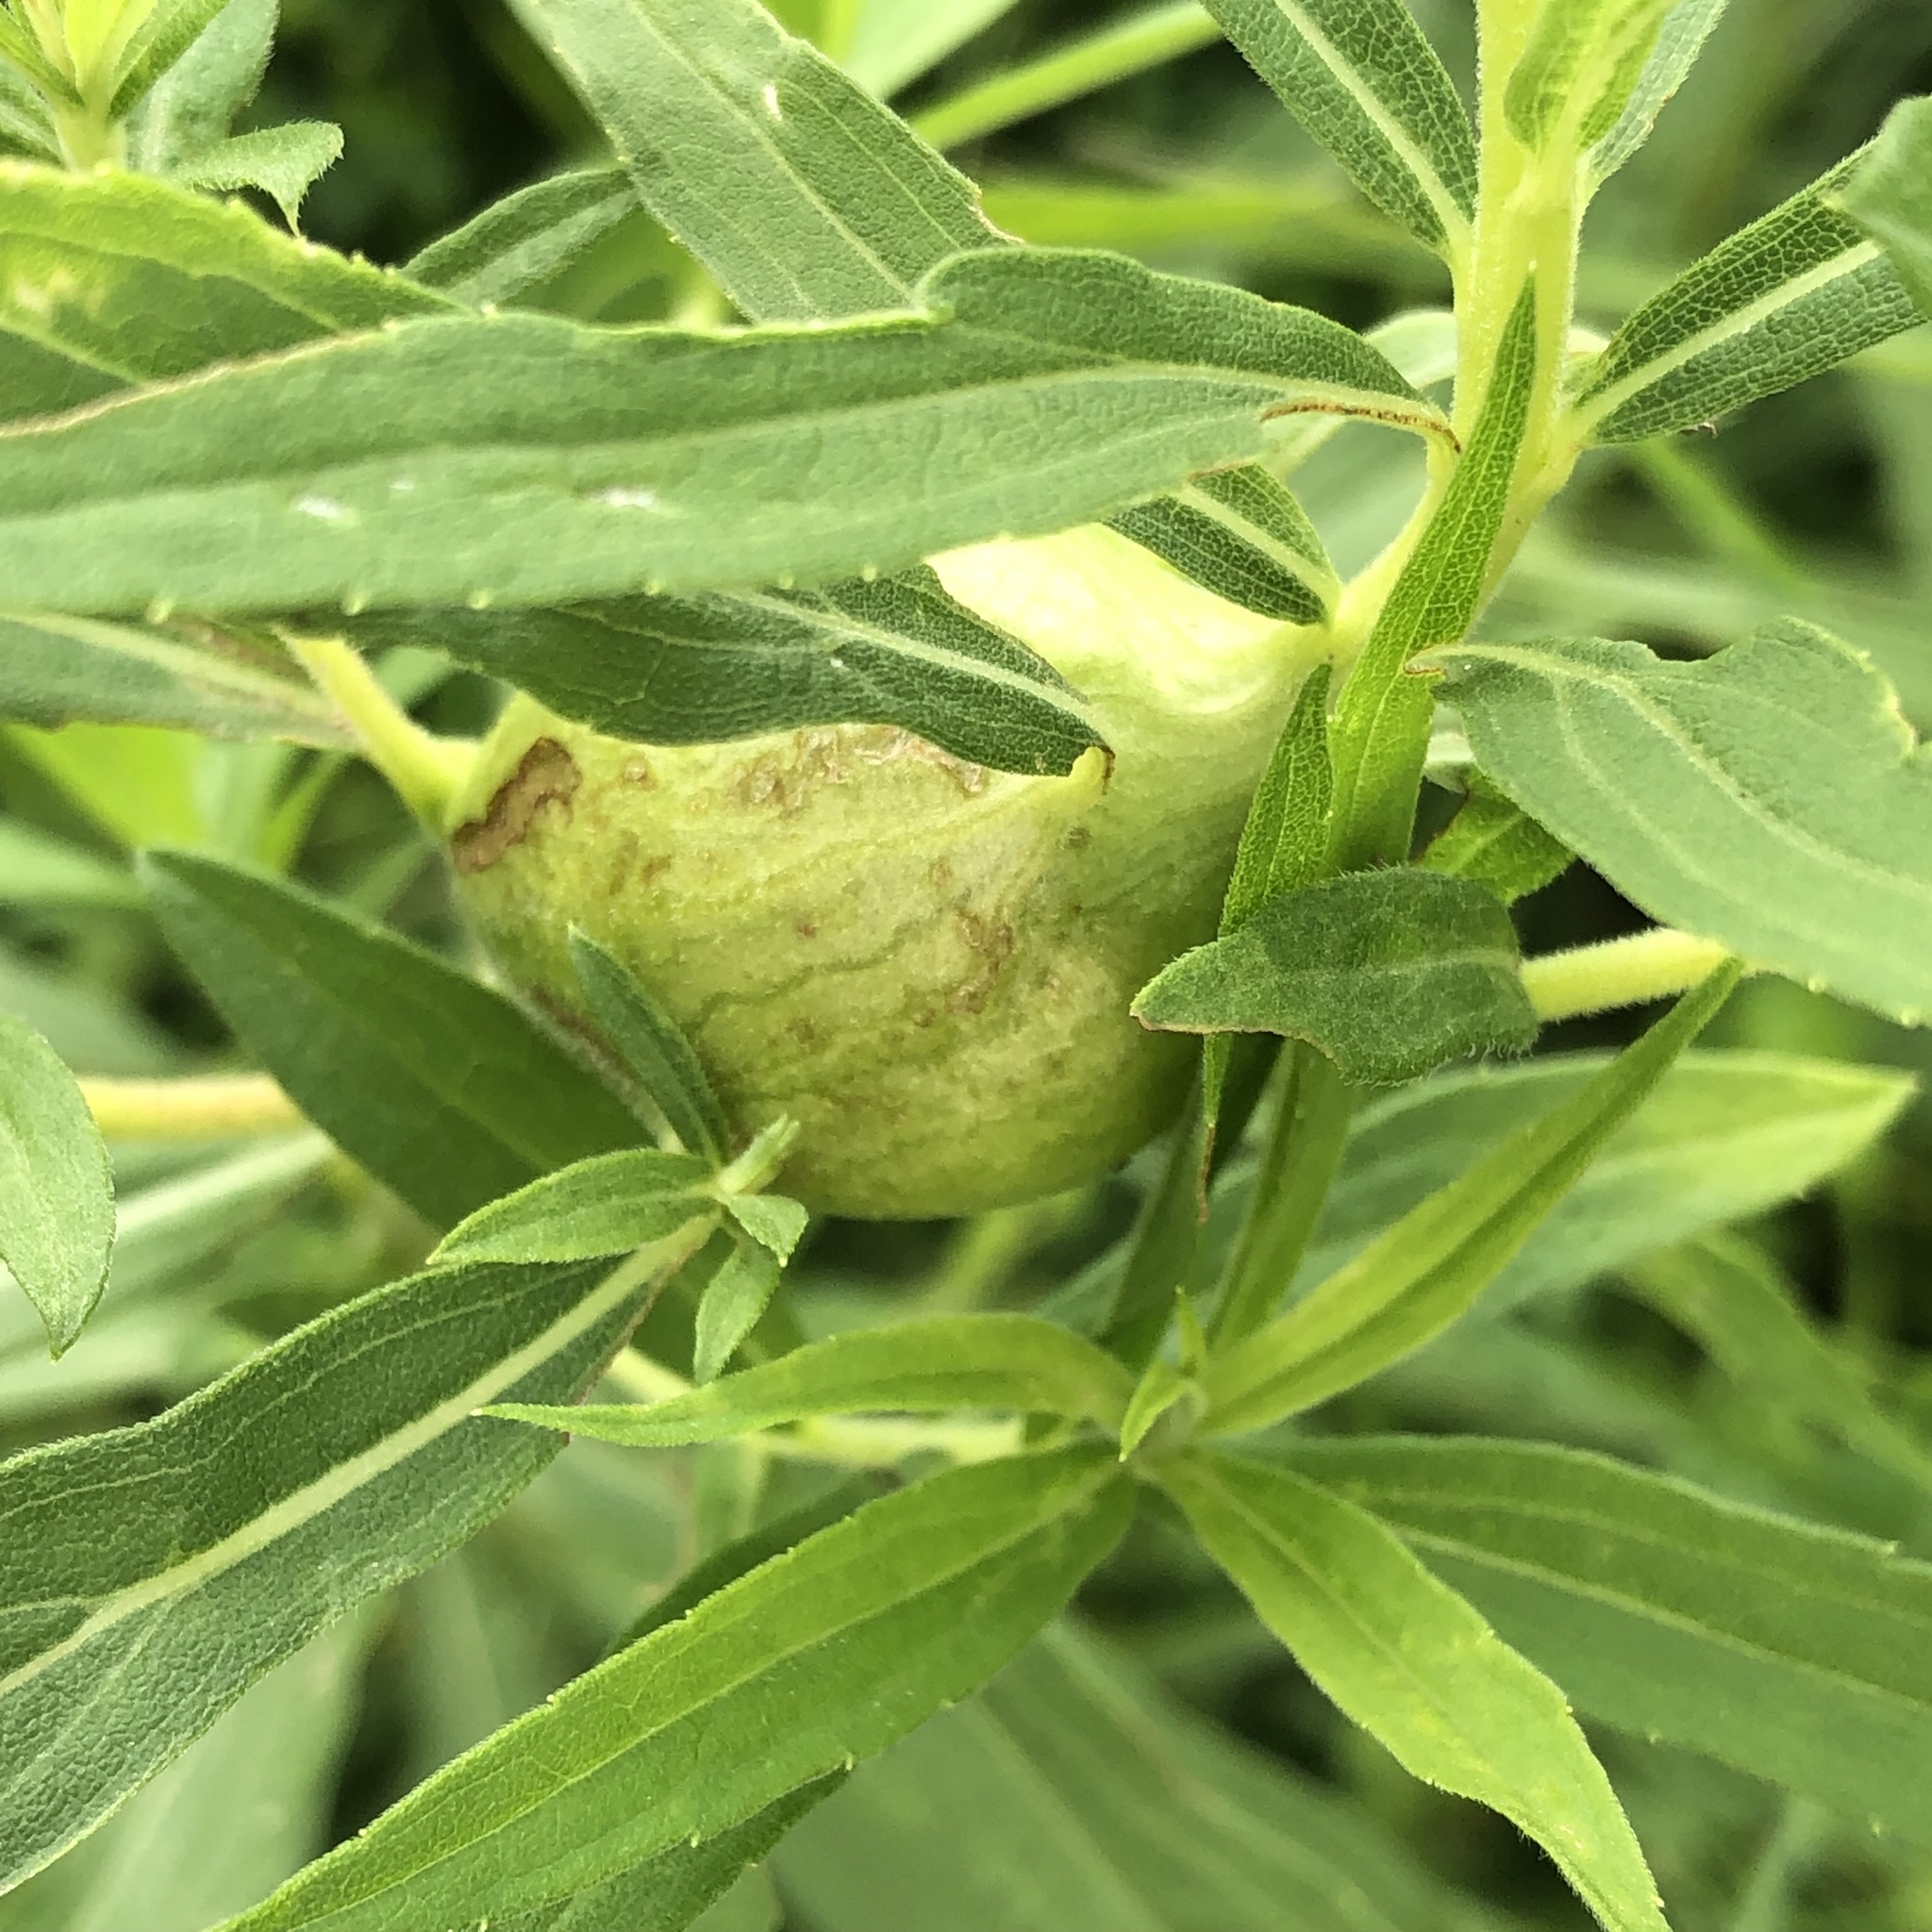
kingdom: Animalia
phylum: Arthropoda
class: Insecta
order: Diptera
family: Tephritidae
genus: Eurosta
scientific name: Eurosta solidaginis
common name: Goldenrod gall fly
